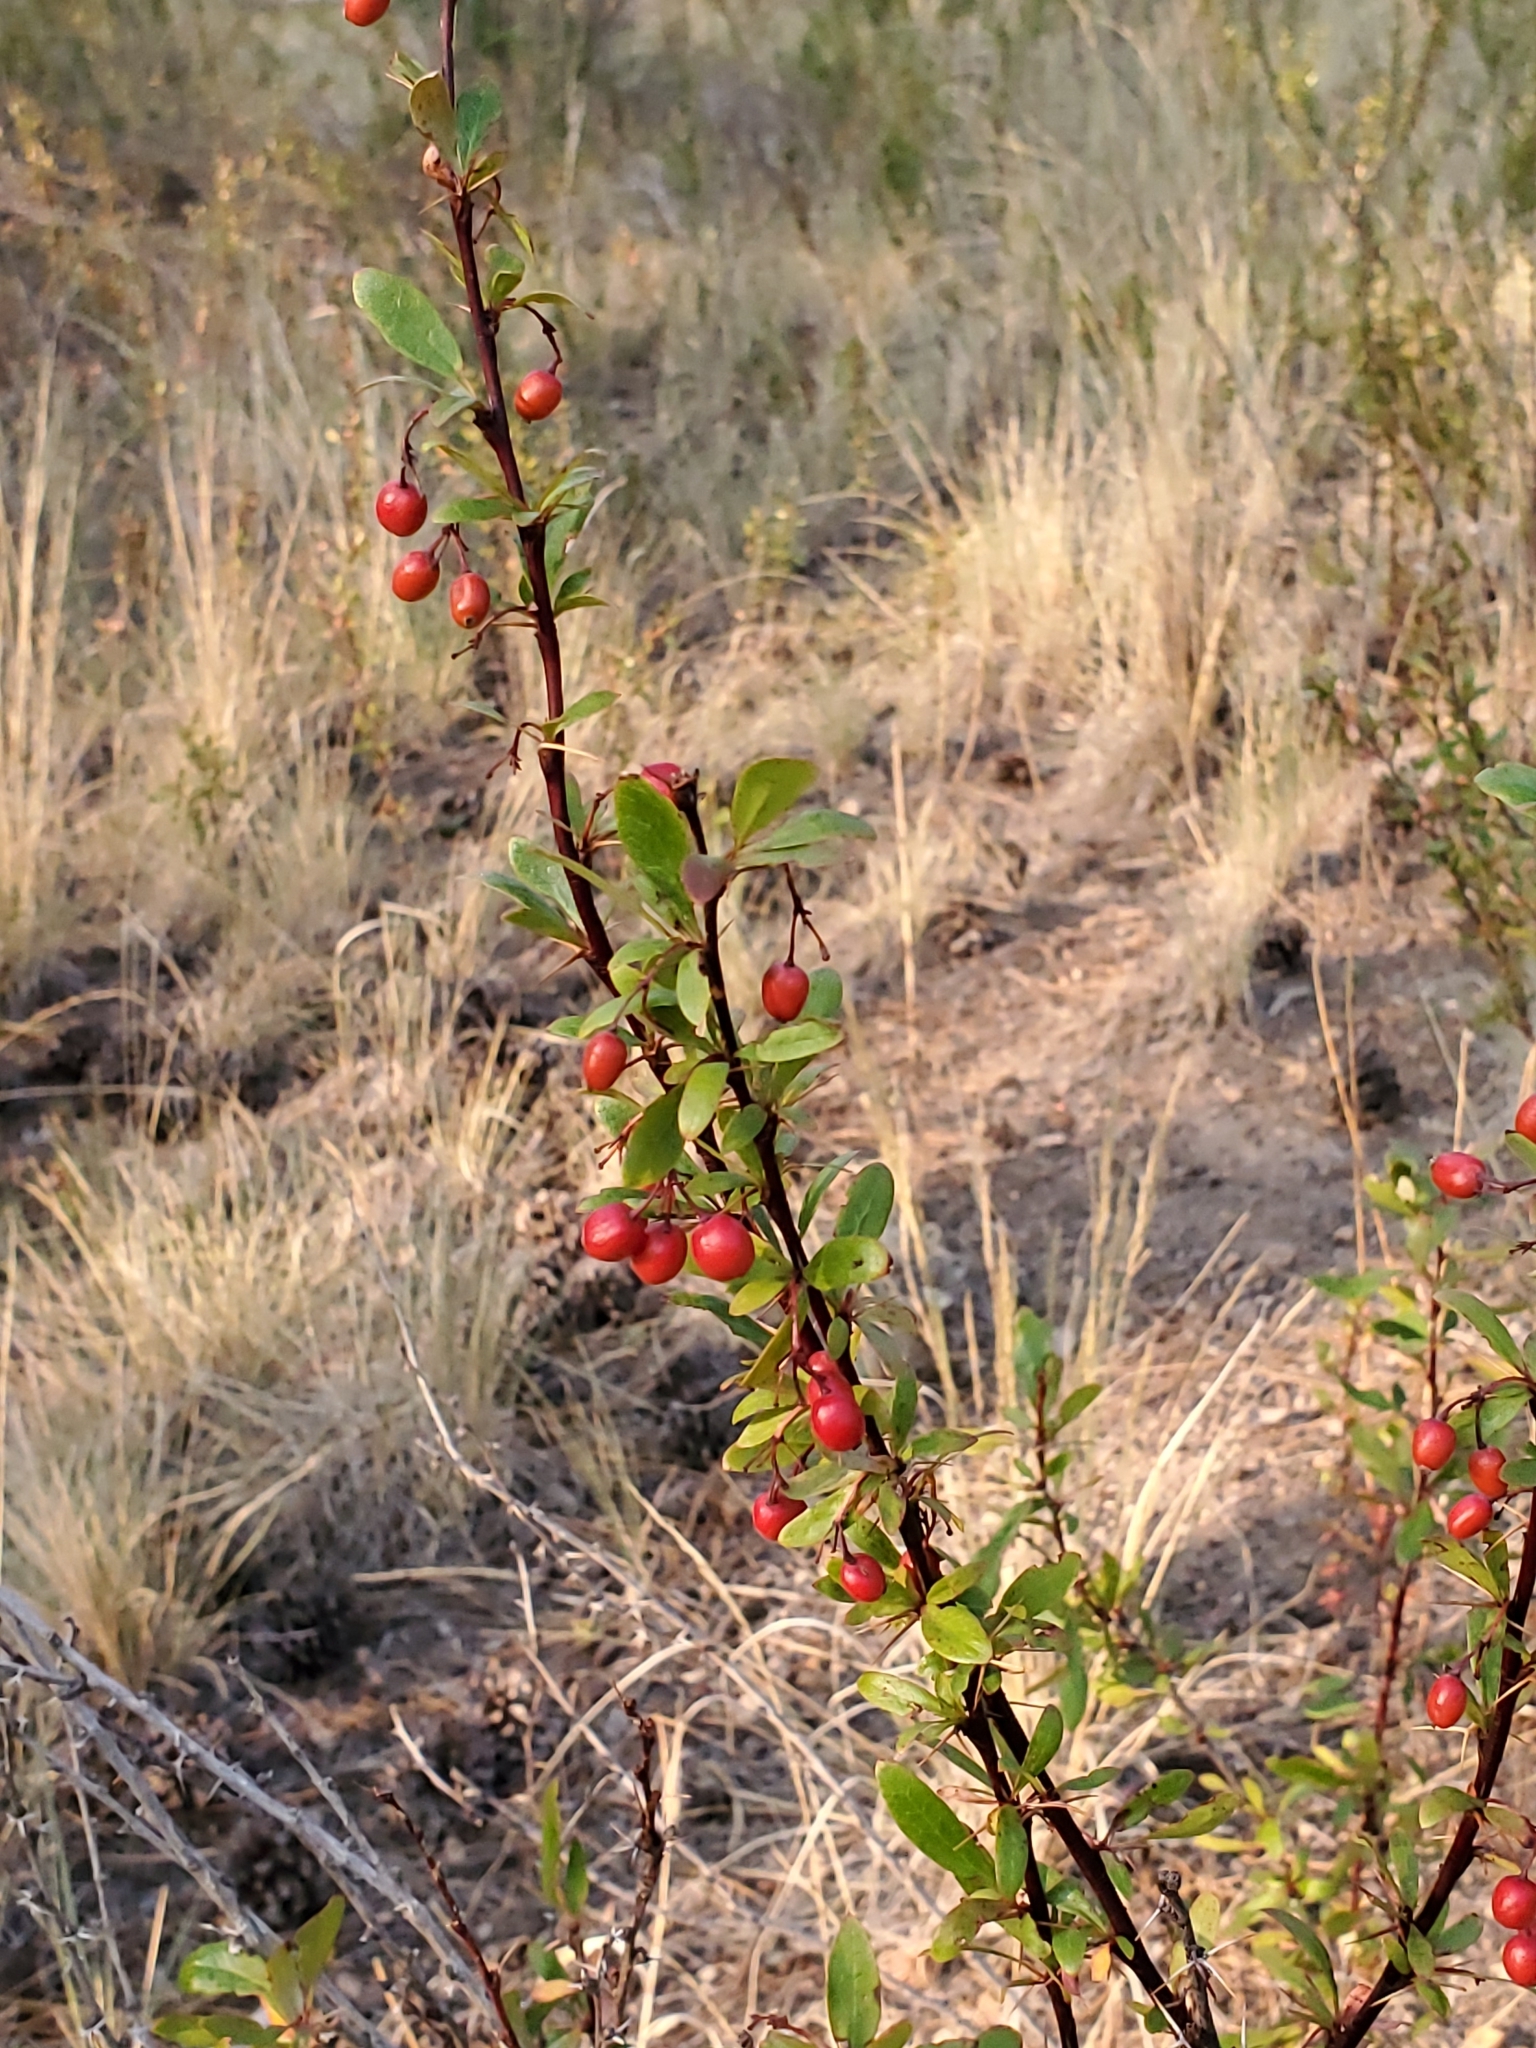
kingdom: Plantae
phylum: Tracheophyta
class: Magnoliopsida
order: Ranunculales
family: Berberidaceae
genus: Berberis
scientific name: Berberis fendleri
